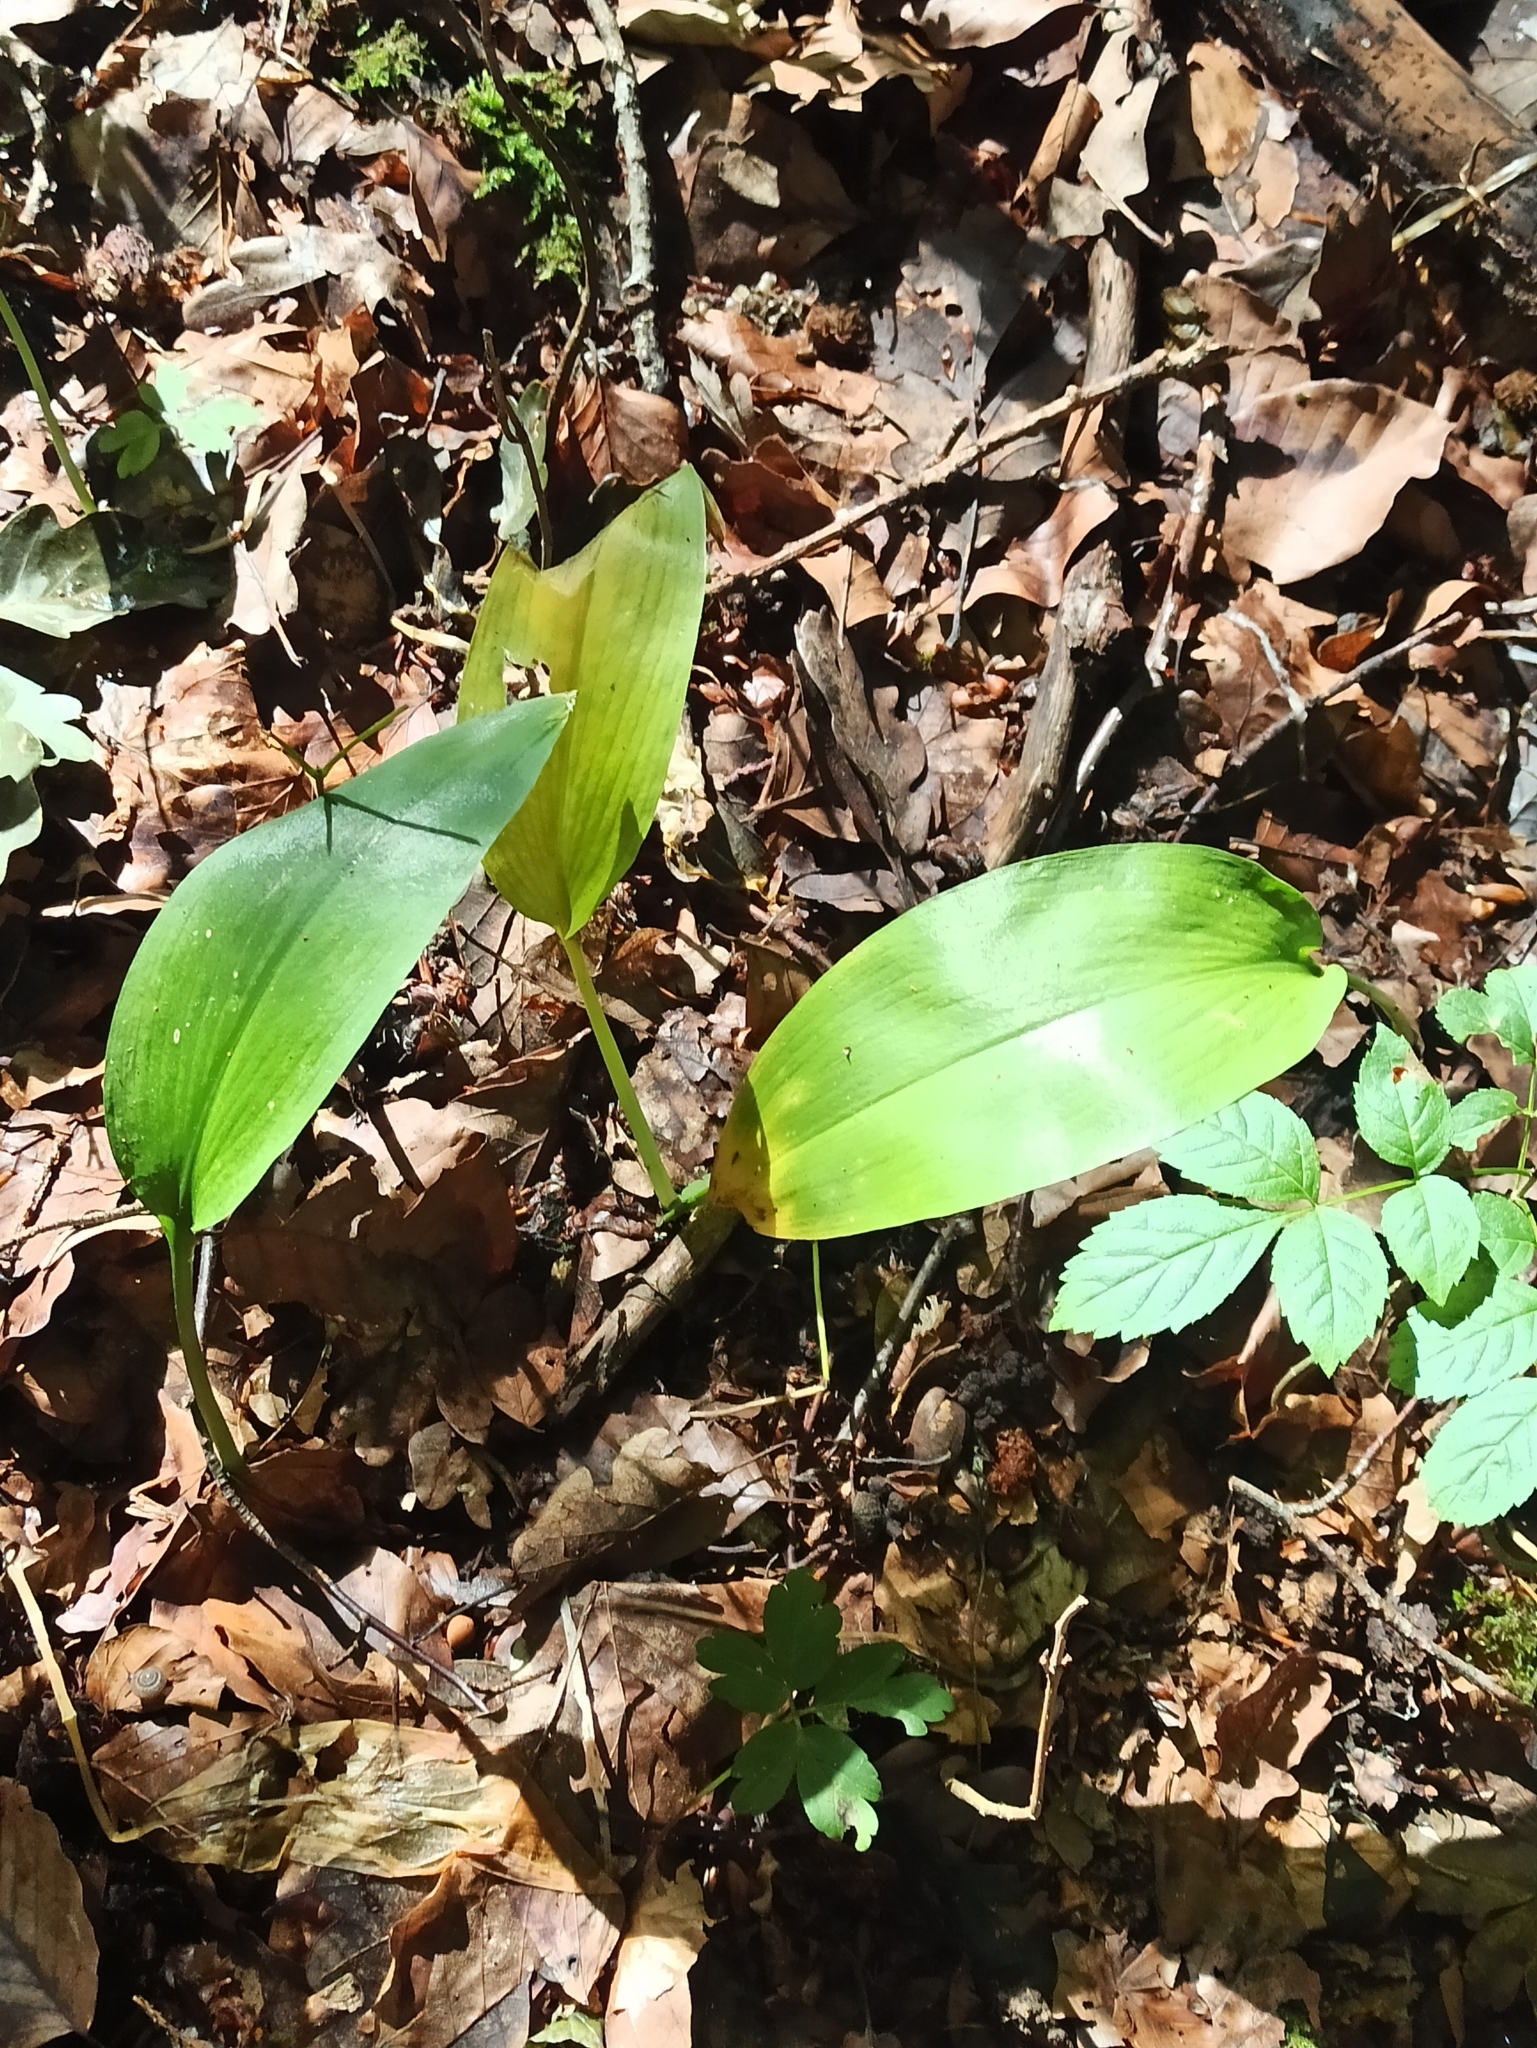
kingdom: Plantae
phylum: Tracheophyta
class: Liliopsida
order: Asparagales
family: Amaryllidaceae
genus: Allium
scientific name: Allium ursinum
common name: Ramsons
